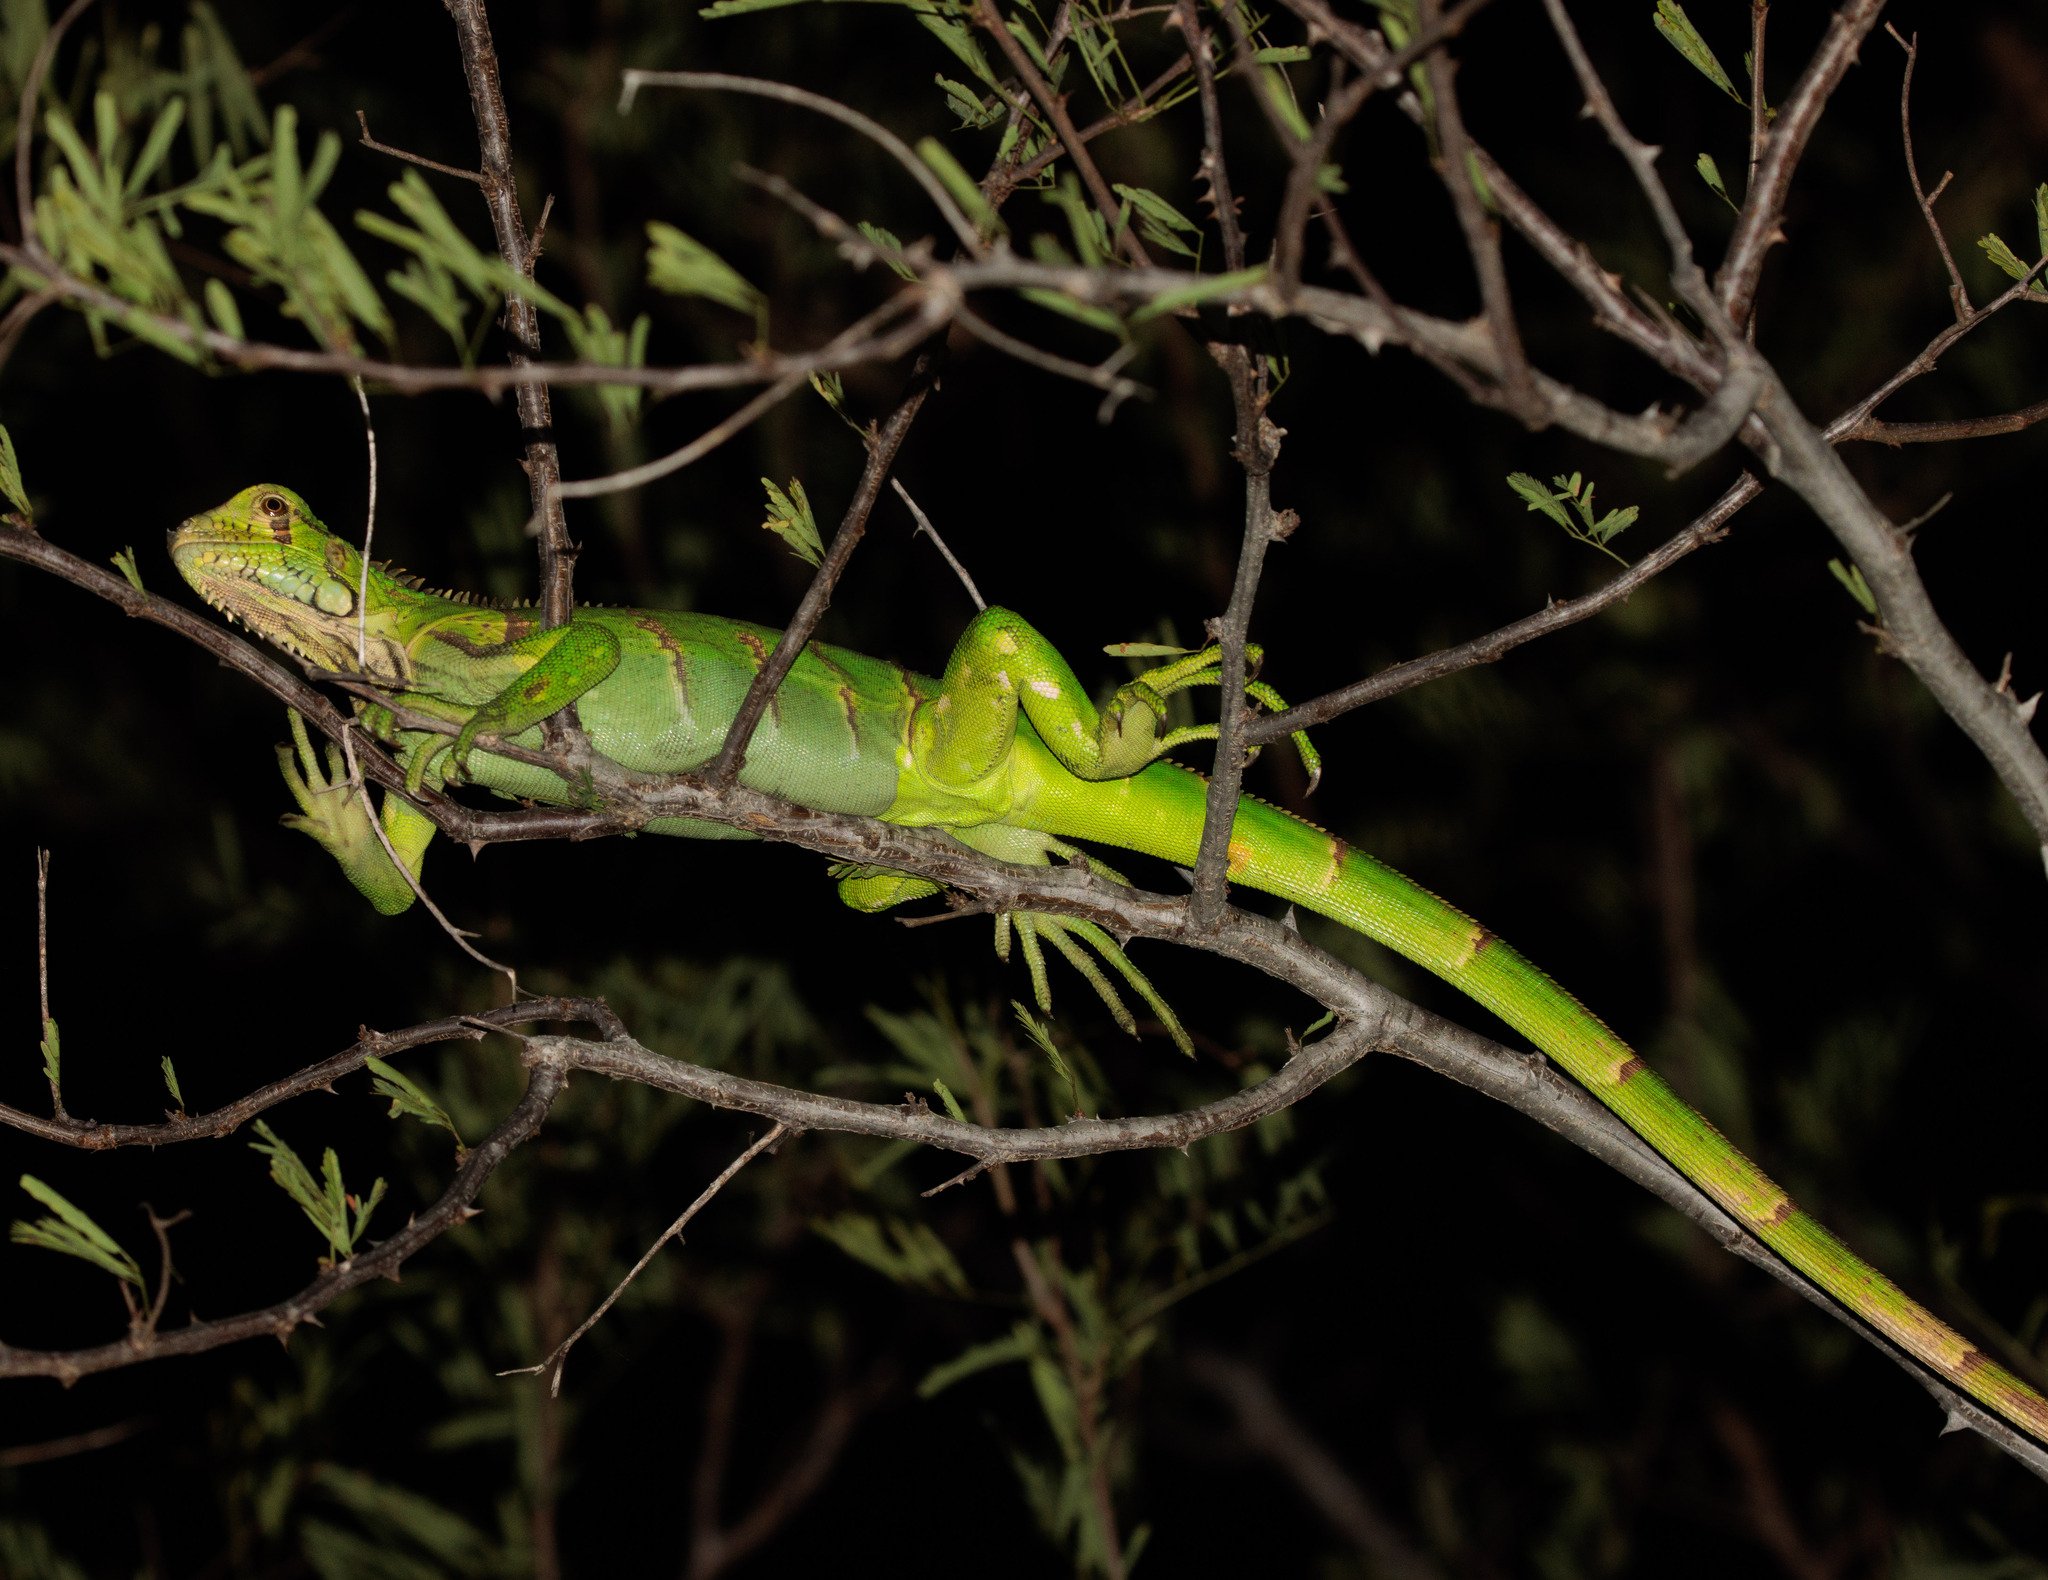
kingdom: Animalia
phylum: Chordata
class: Squamata
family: Iguanidae
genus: Iguana
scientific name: Iguana iguana
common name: Green iguana
